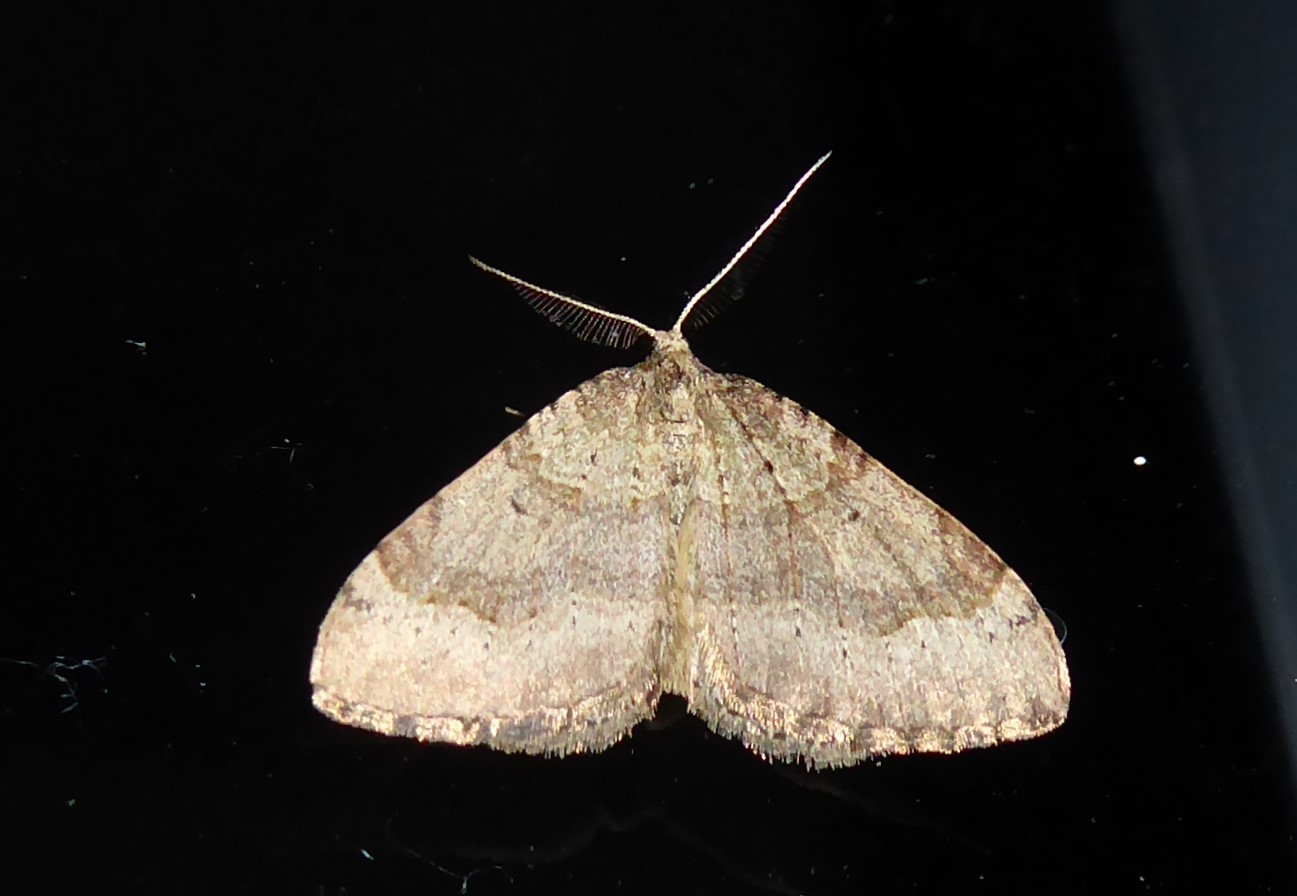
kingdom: Animalia
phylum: Arthropoda
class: Insecta
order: Lepidoptera
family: Geometridae
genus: Epyaxa
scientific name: Epyaxa rosearia
